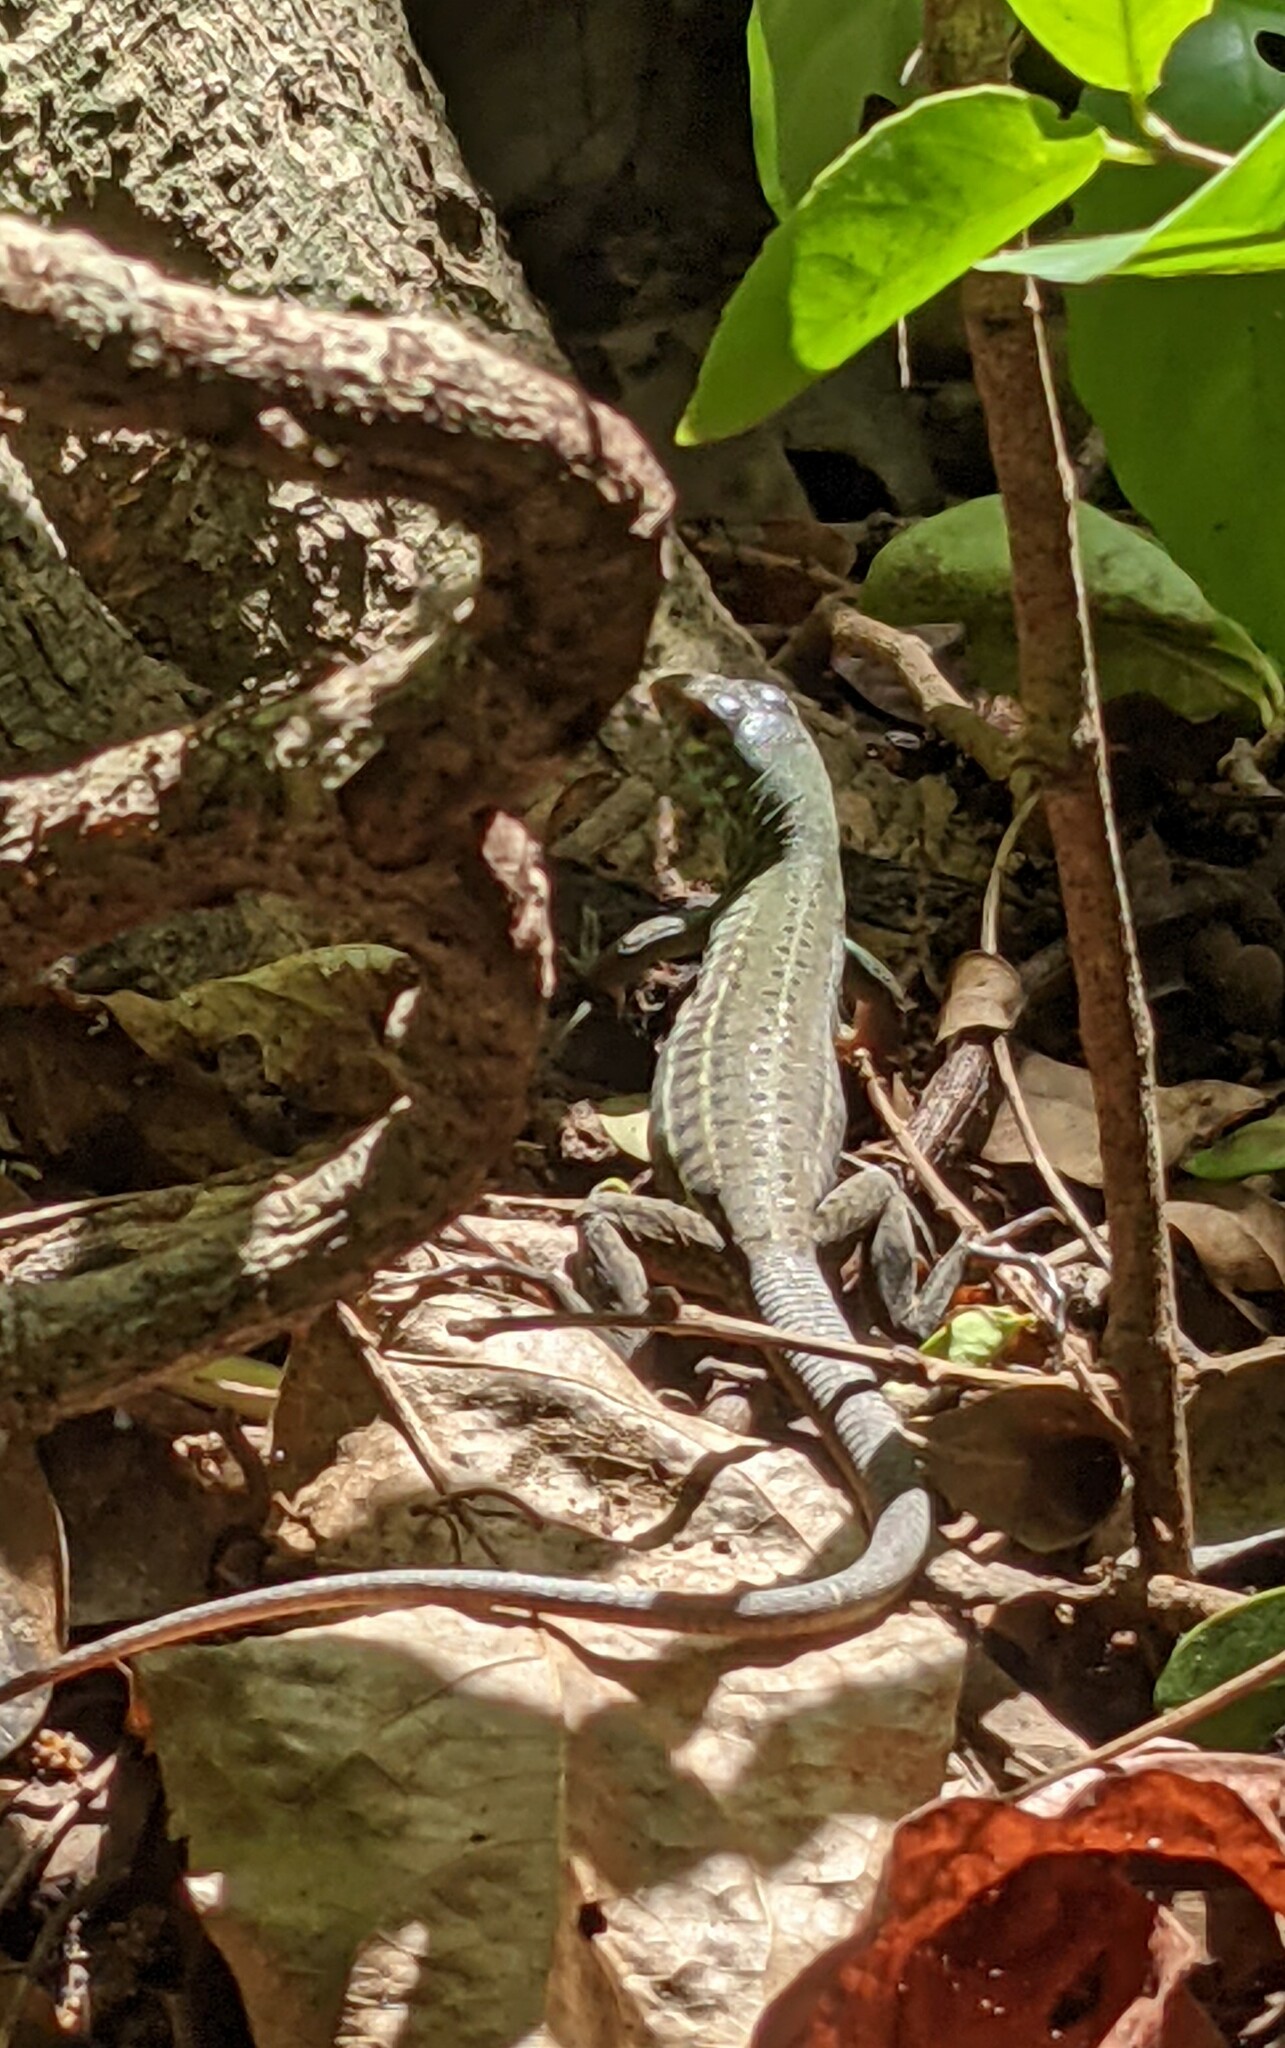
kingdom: Animalia
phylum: Chordata
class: Squamata
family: Teiidae
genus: Ameiva
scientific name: Ameiva bifrontata
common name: Cope's ameiva
